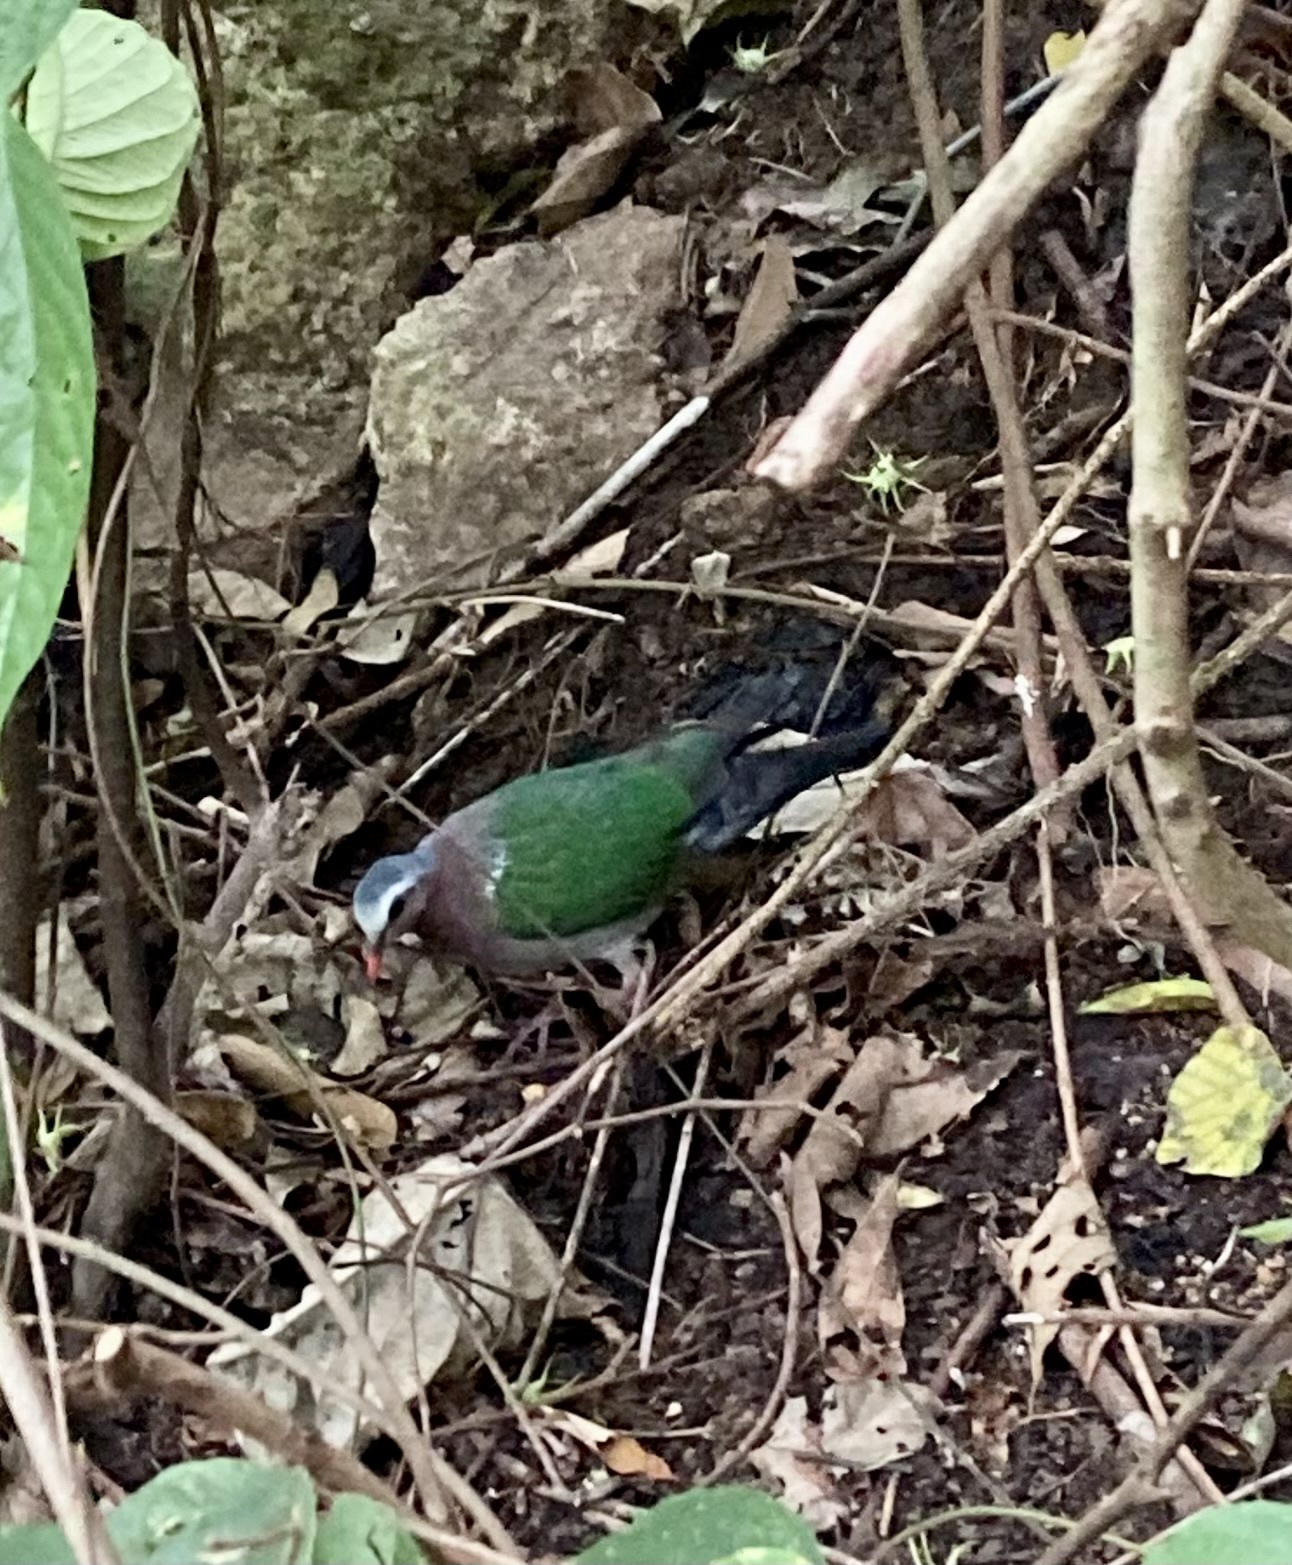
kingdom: Animalia
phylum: Chordata
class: Aves
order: Columbiformes
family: Columbidae
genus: Chalcophaps
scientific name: Chalcophaps indica
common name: Common emerald dove
